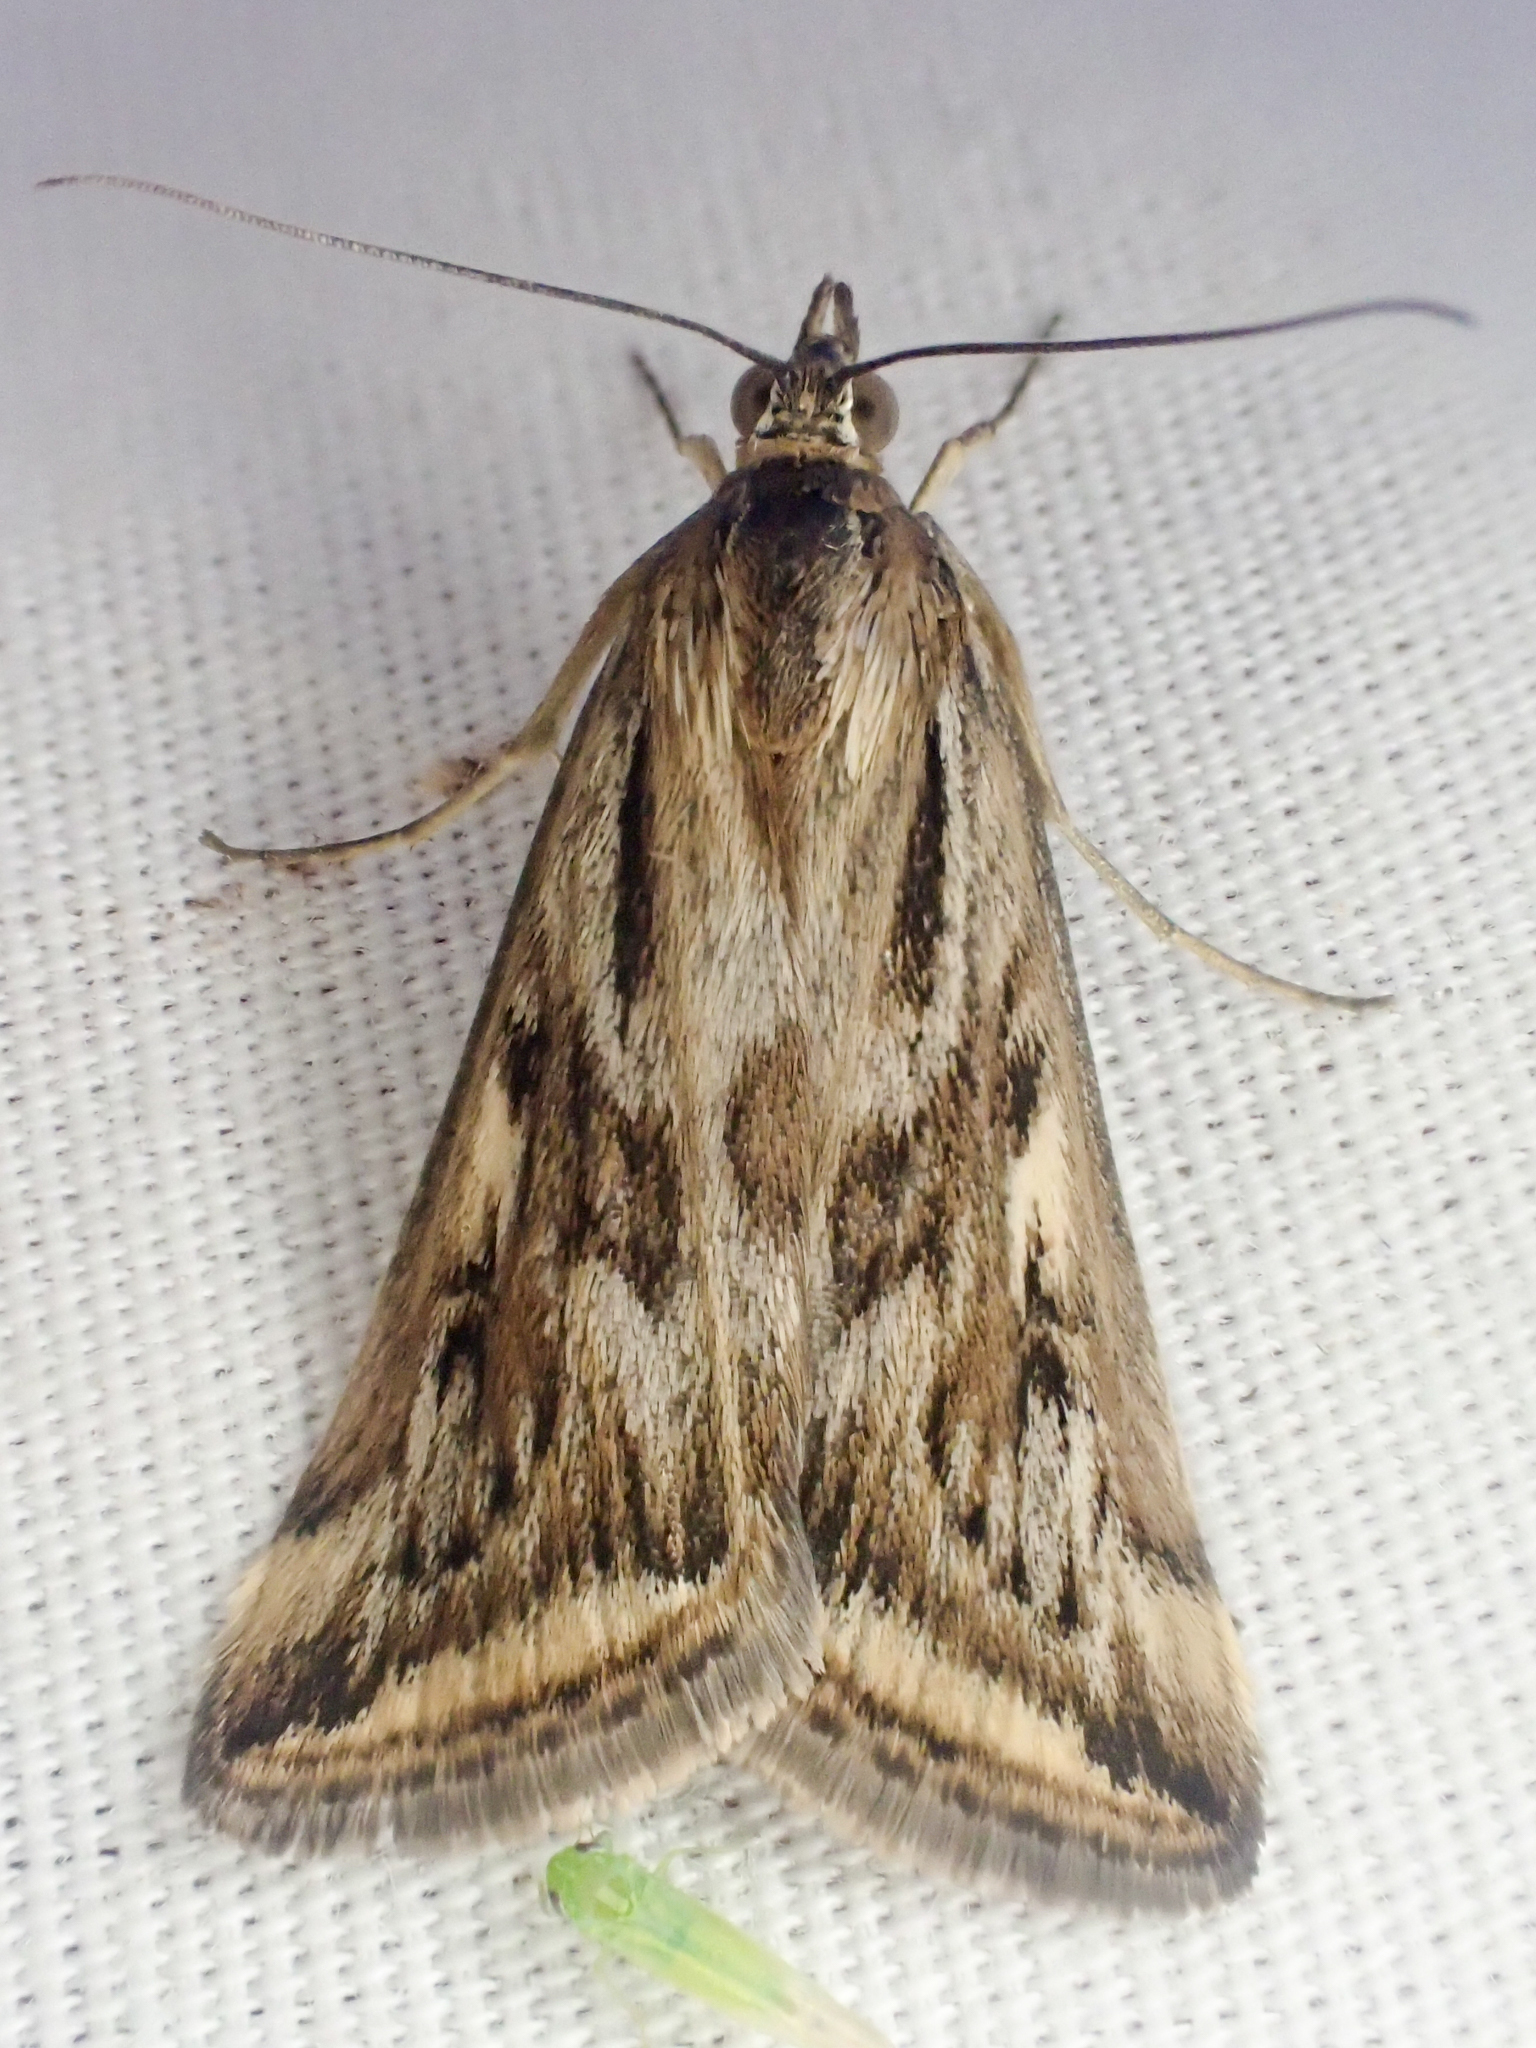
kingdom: Animalia
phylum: Arthropoda
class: Insecta
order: Lepidoptera
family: Crambidae
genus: Loxostege
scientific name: Loxostege cereralis
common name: Alfalfa webworm moth
